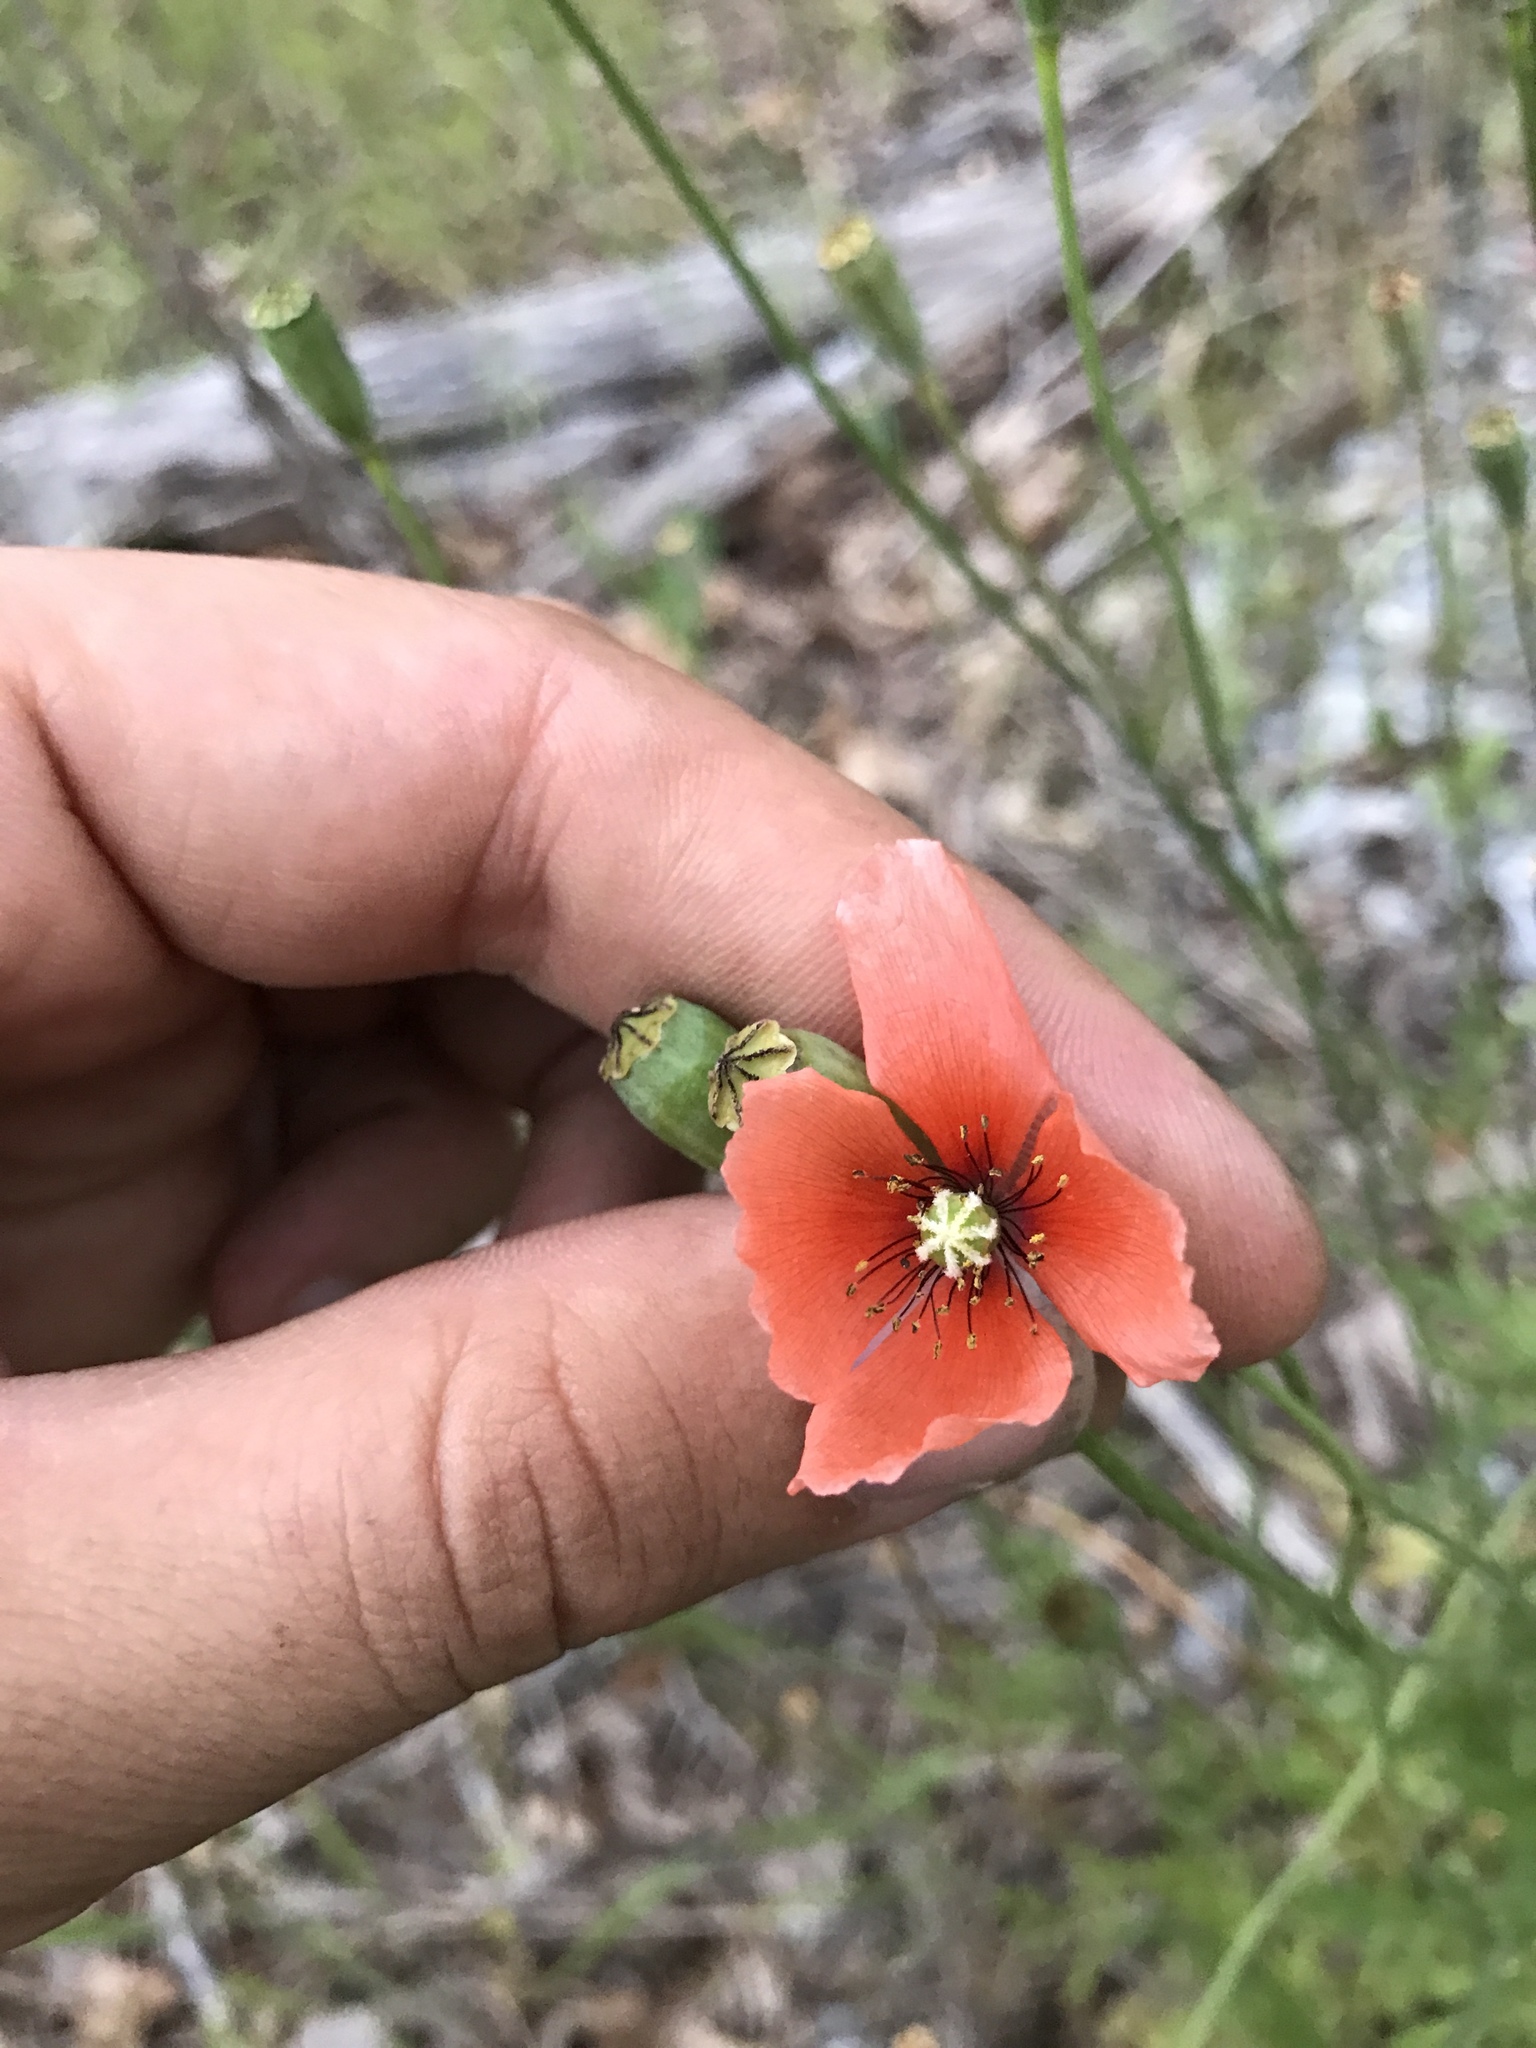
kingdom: Plantae
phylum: Tracheophyta
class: Magnoliopsida
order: Ranunculales
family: Papaveraceae
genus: Papaver
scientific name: Papaver dubium
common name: Long-headed poppy
